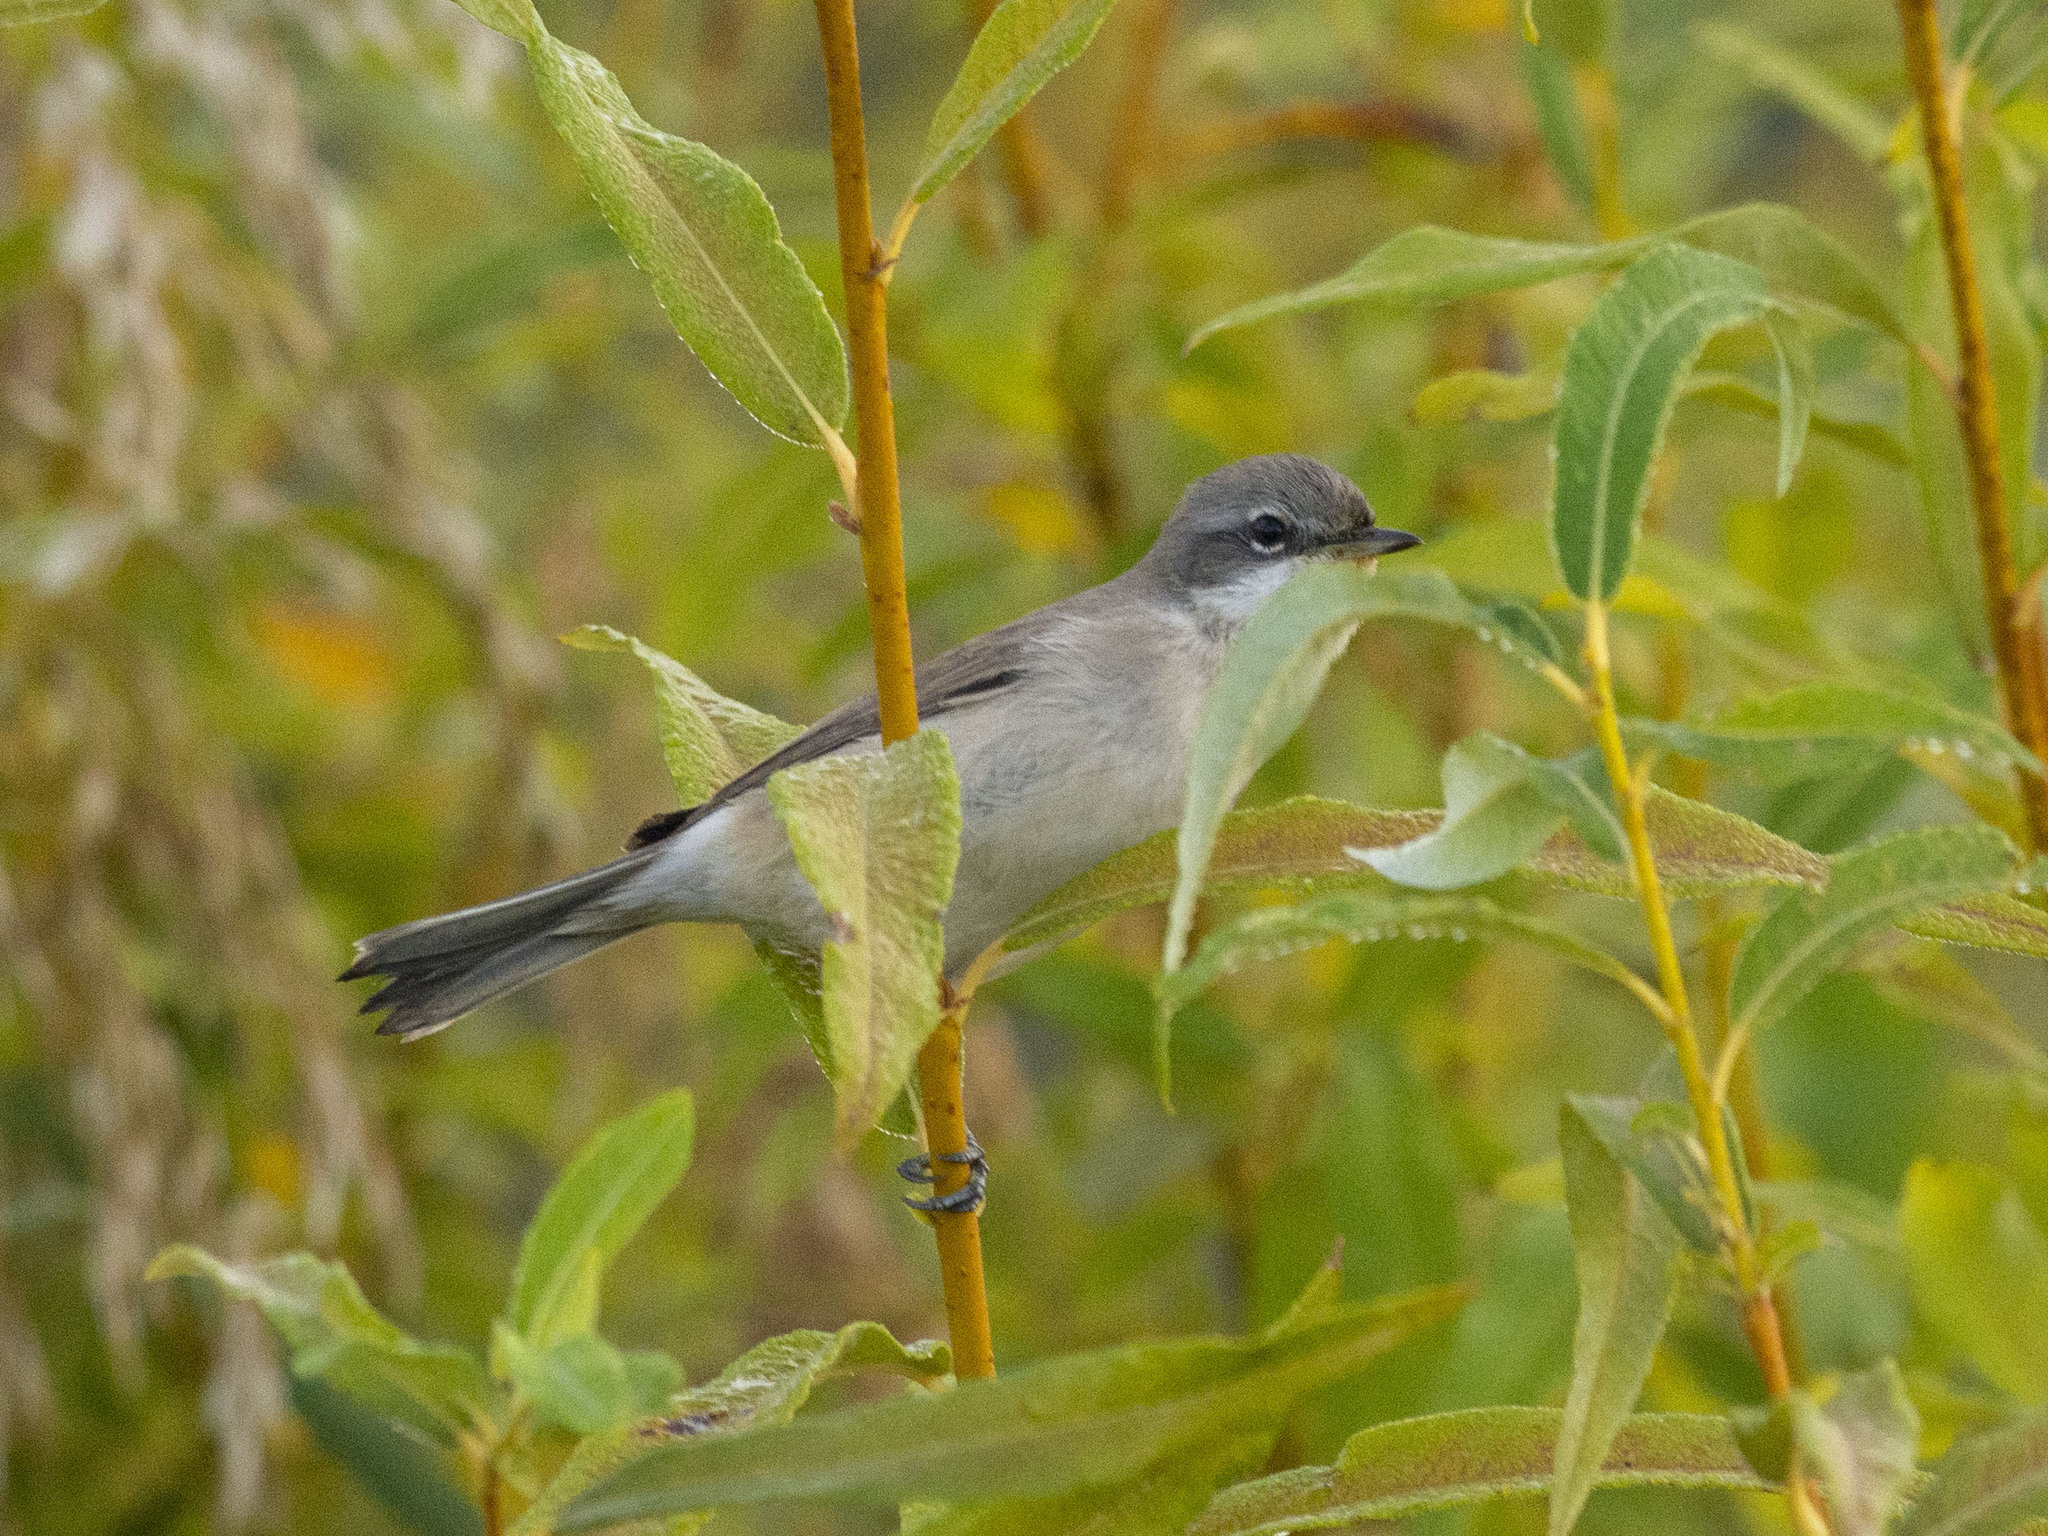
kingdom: Animalia
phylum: Chordata
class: Aves
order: Passeriformes
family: Sylviidae
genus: Sylvia
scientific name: Sylvia curruca
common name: Lesser whitethroat
